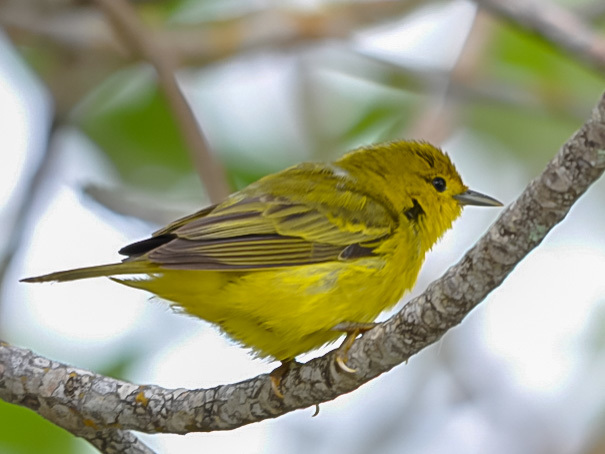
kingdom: Animalia
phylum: Chordata
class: Aves
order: Passeriformes
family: Parulidae
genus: Setophaga
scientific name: Setophaga petechia
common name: Yellow warbler
